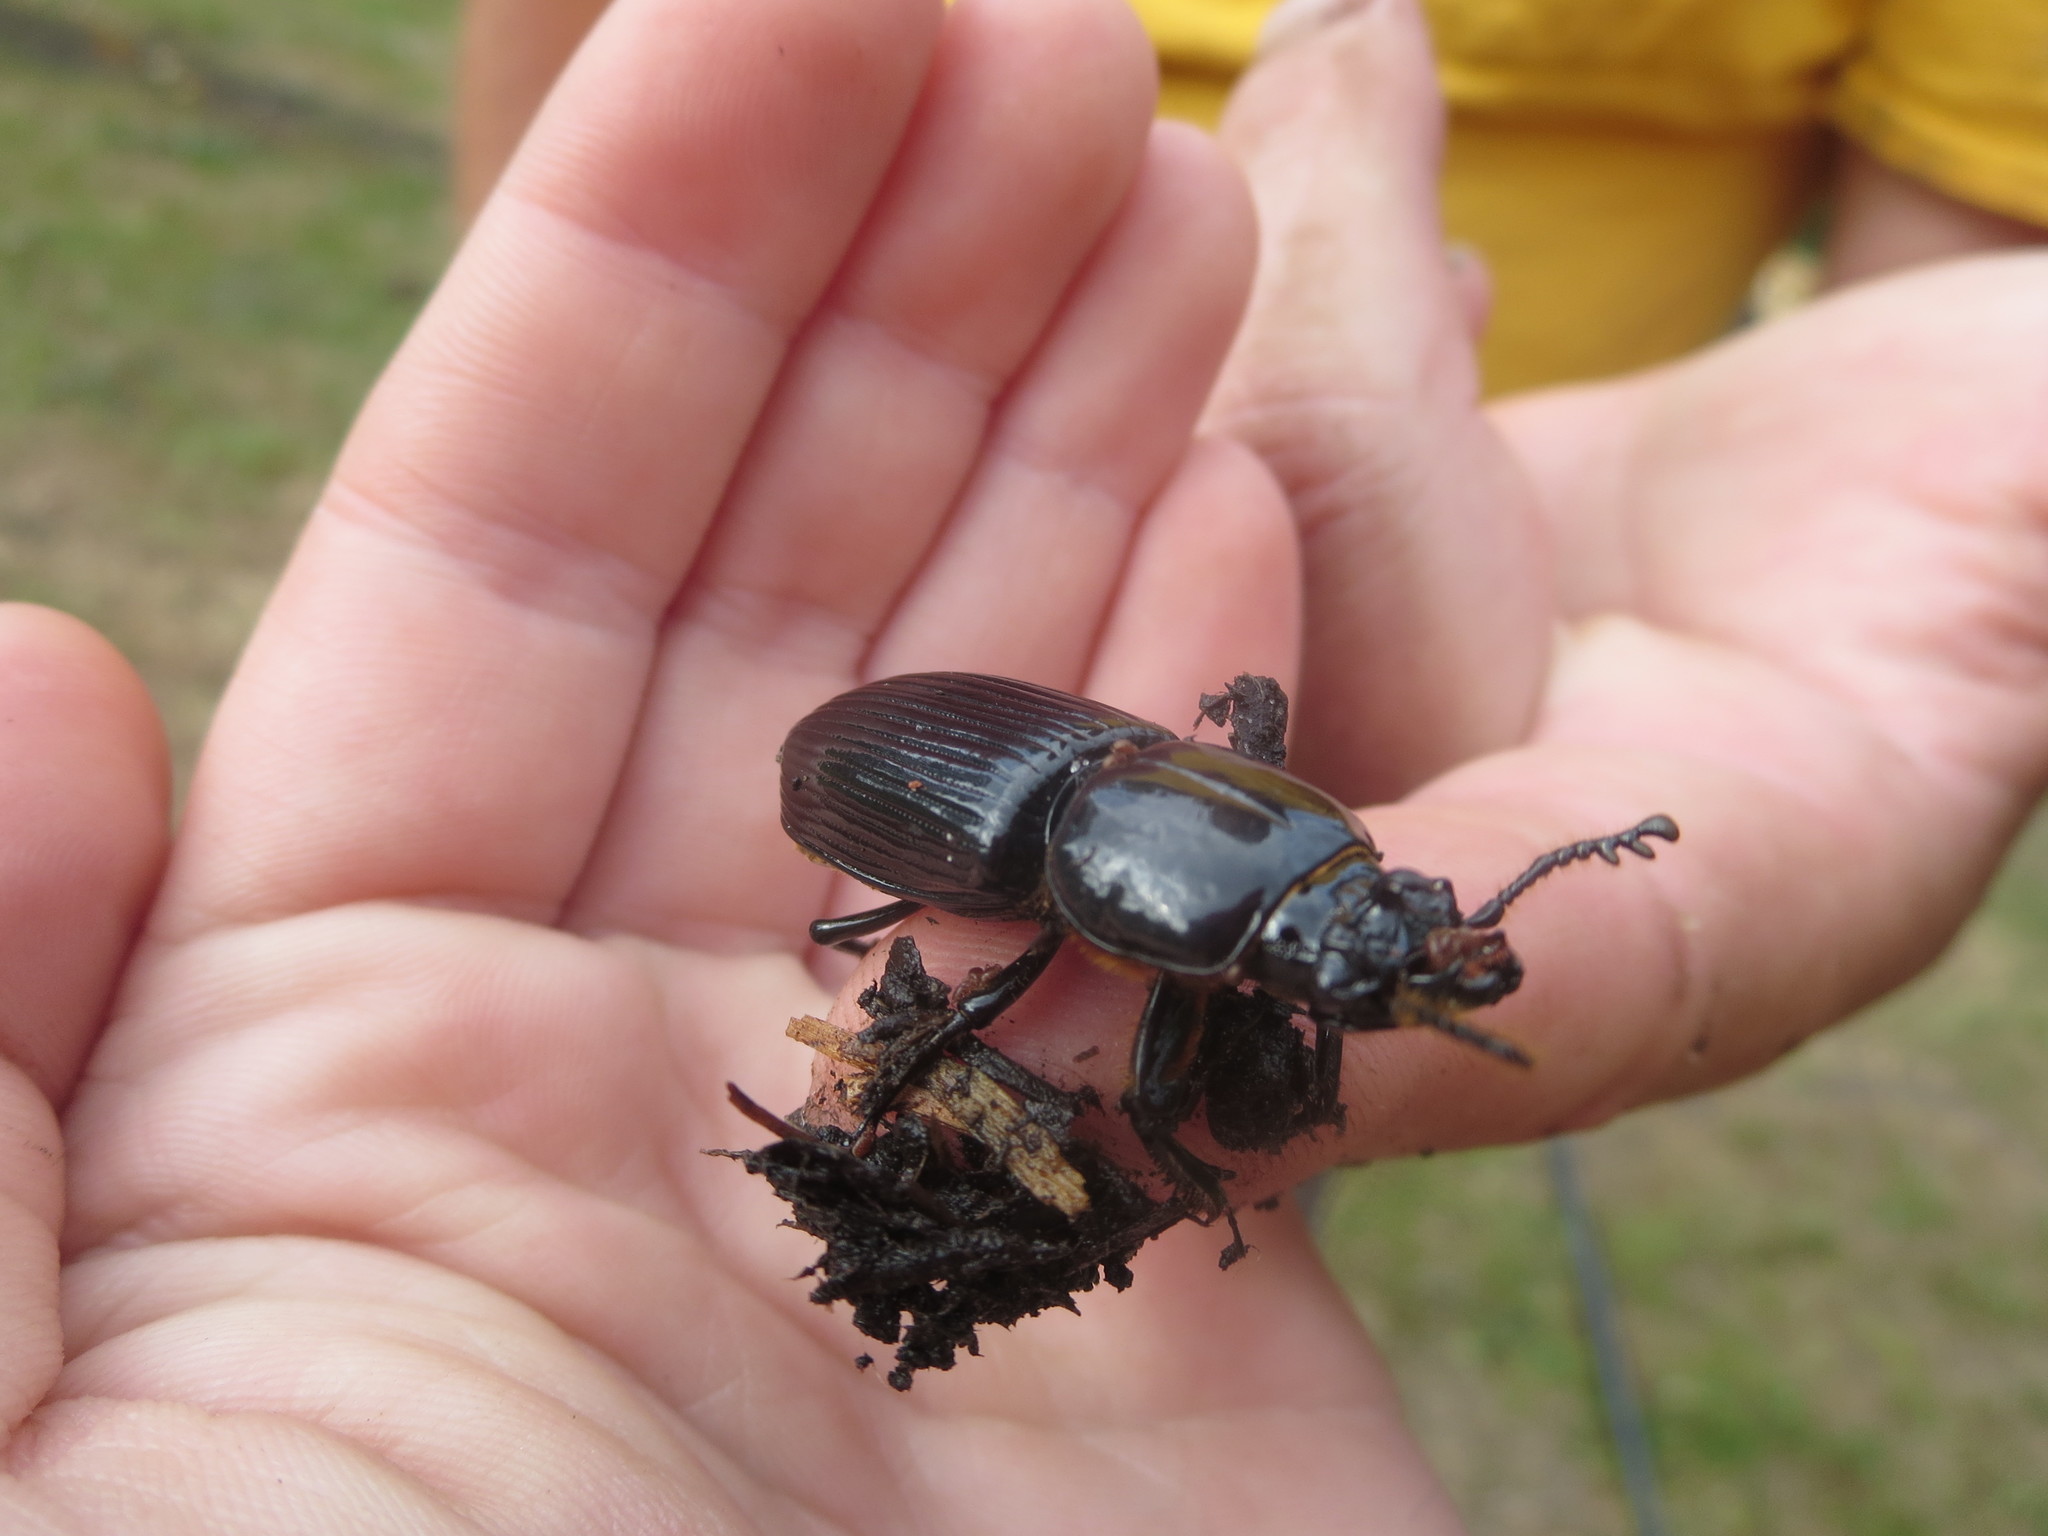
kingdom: Animalia
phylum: Arthropoda
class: Insecta
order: Coleoptera
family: Passalidae
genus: Odontotaenius
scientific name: Odontotaenius disjunctus
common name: Patent leather beetle
